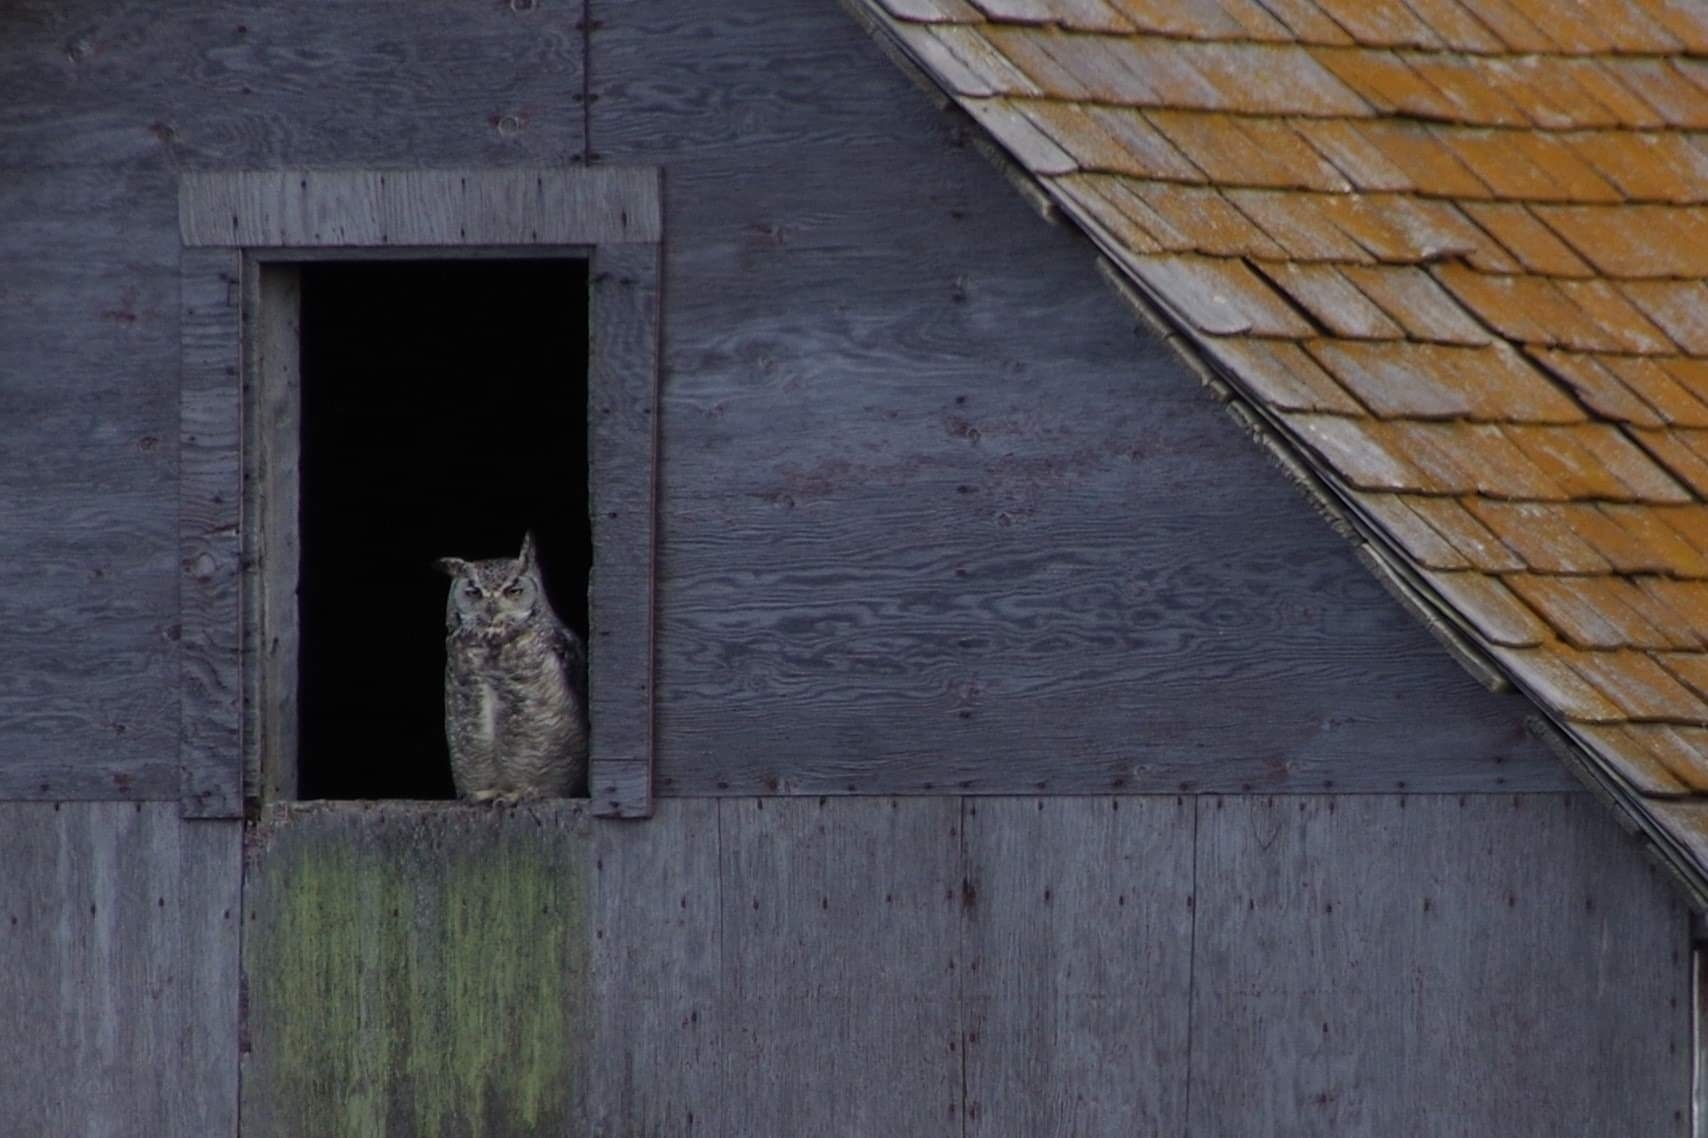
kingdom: Animalia
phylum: Chordata
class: Aves
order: Strigiformes
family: Strigidae
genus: Bubo
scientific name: Bubo virginianus
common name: Great horned owl
